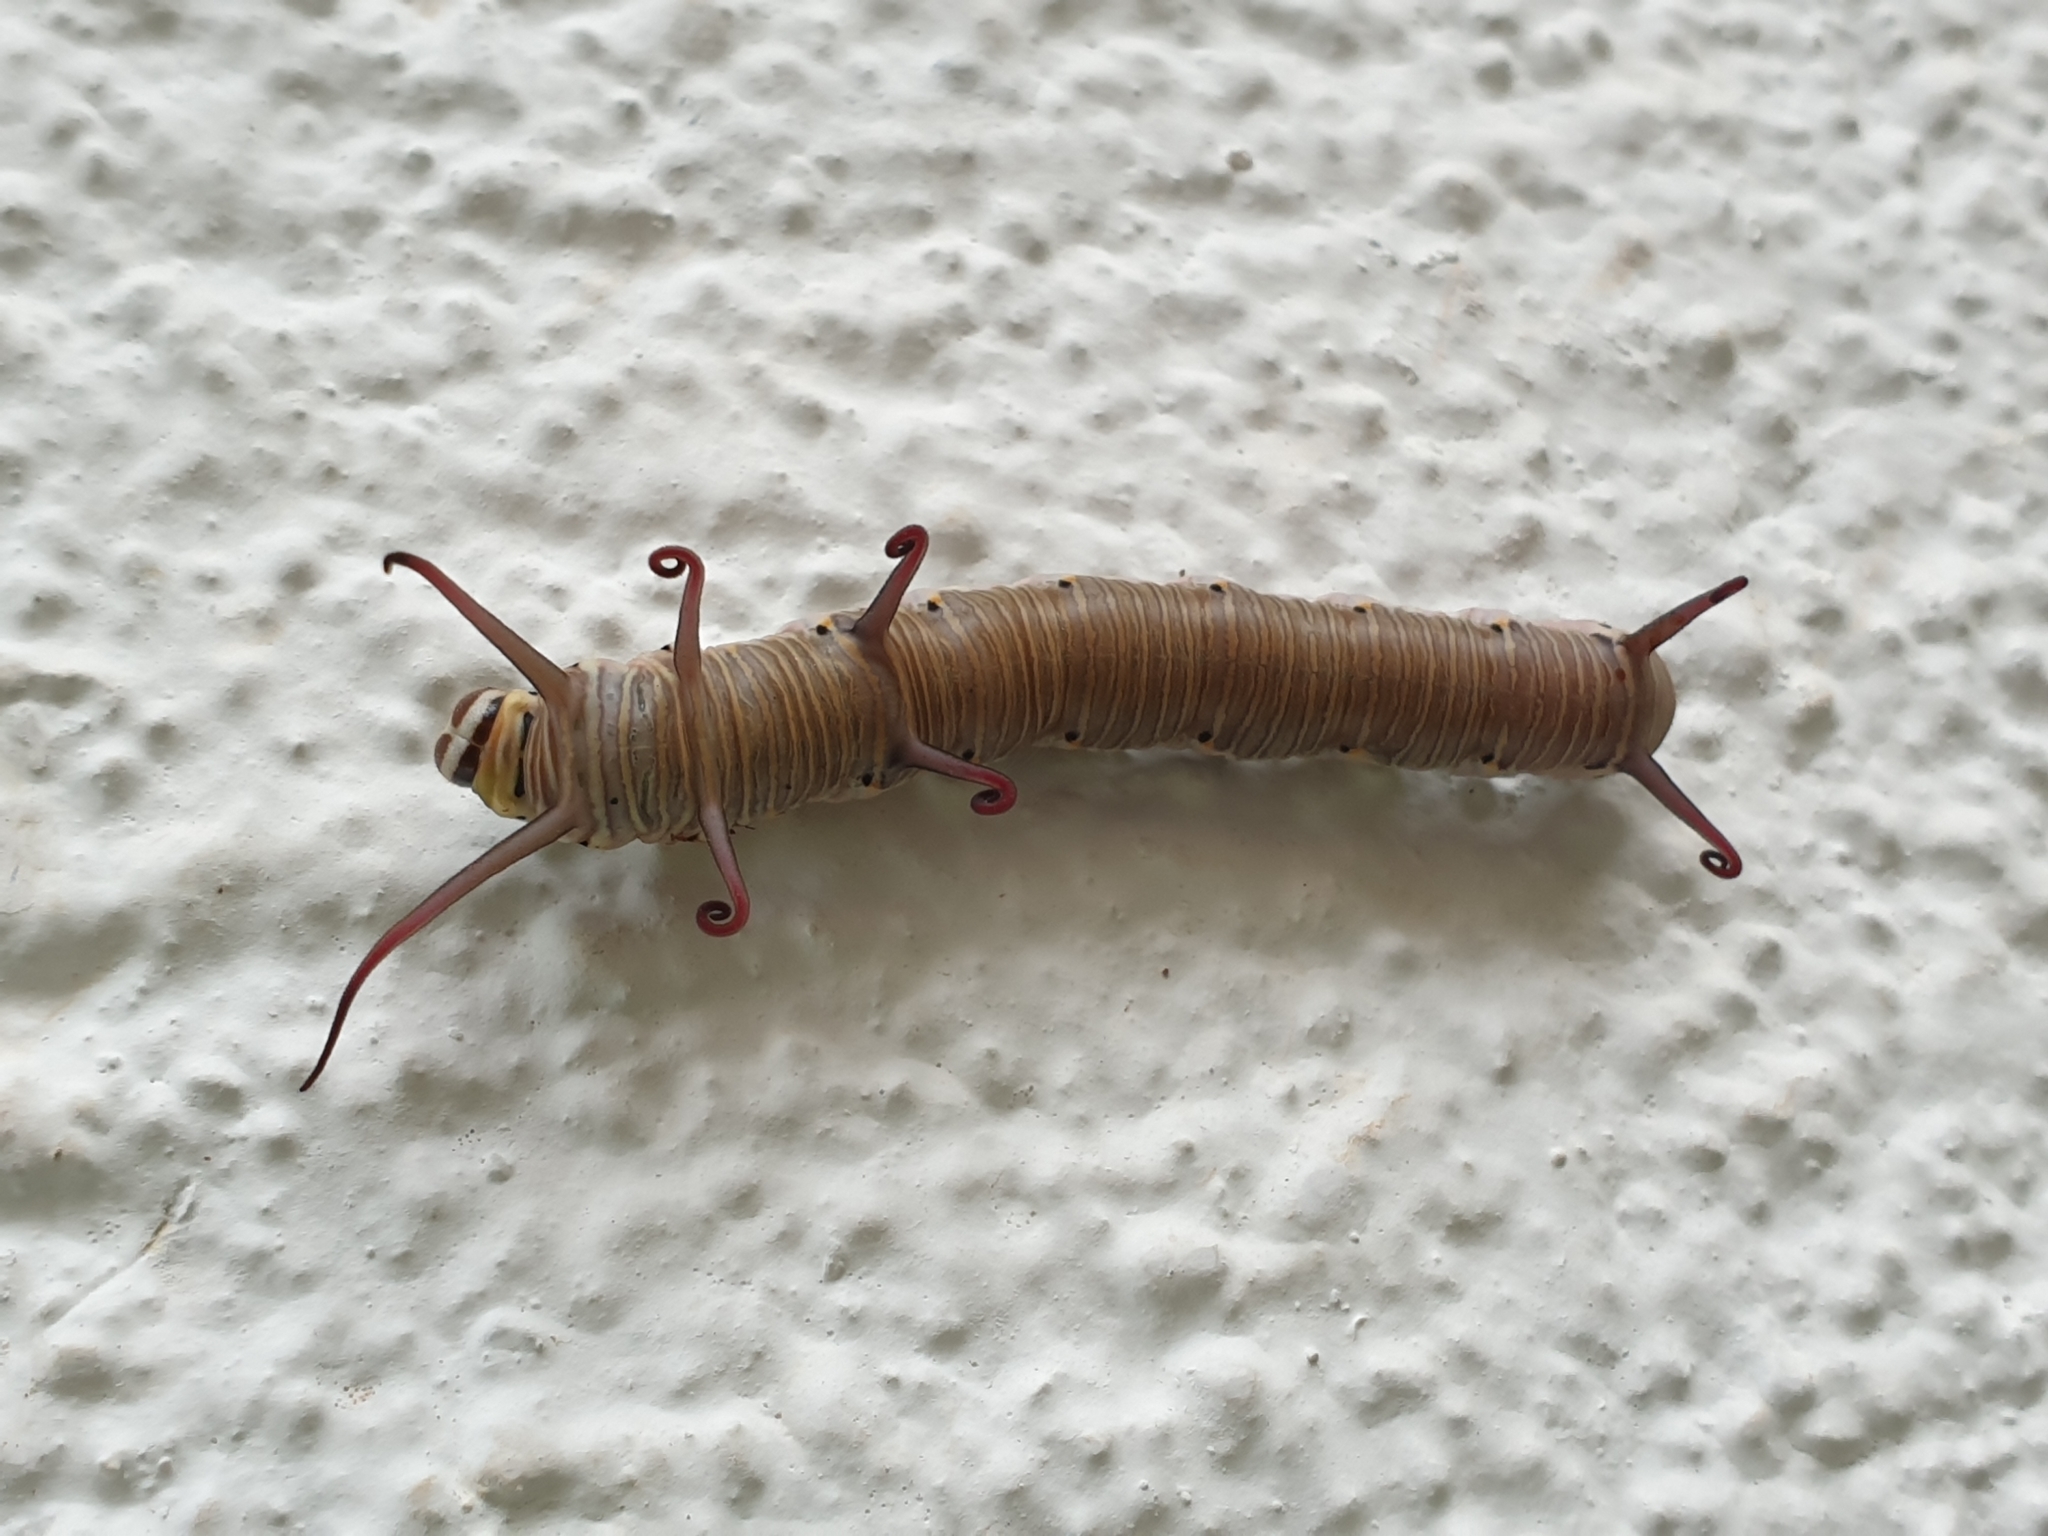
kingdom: Animalia
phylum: Arthropoda
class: Insecta
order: Lepidoptera
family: Nymphalidae
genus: Euploea
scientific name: Euploea core
